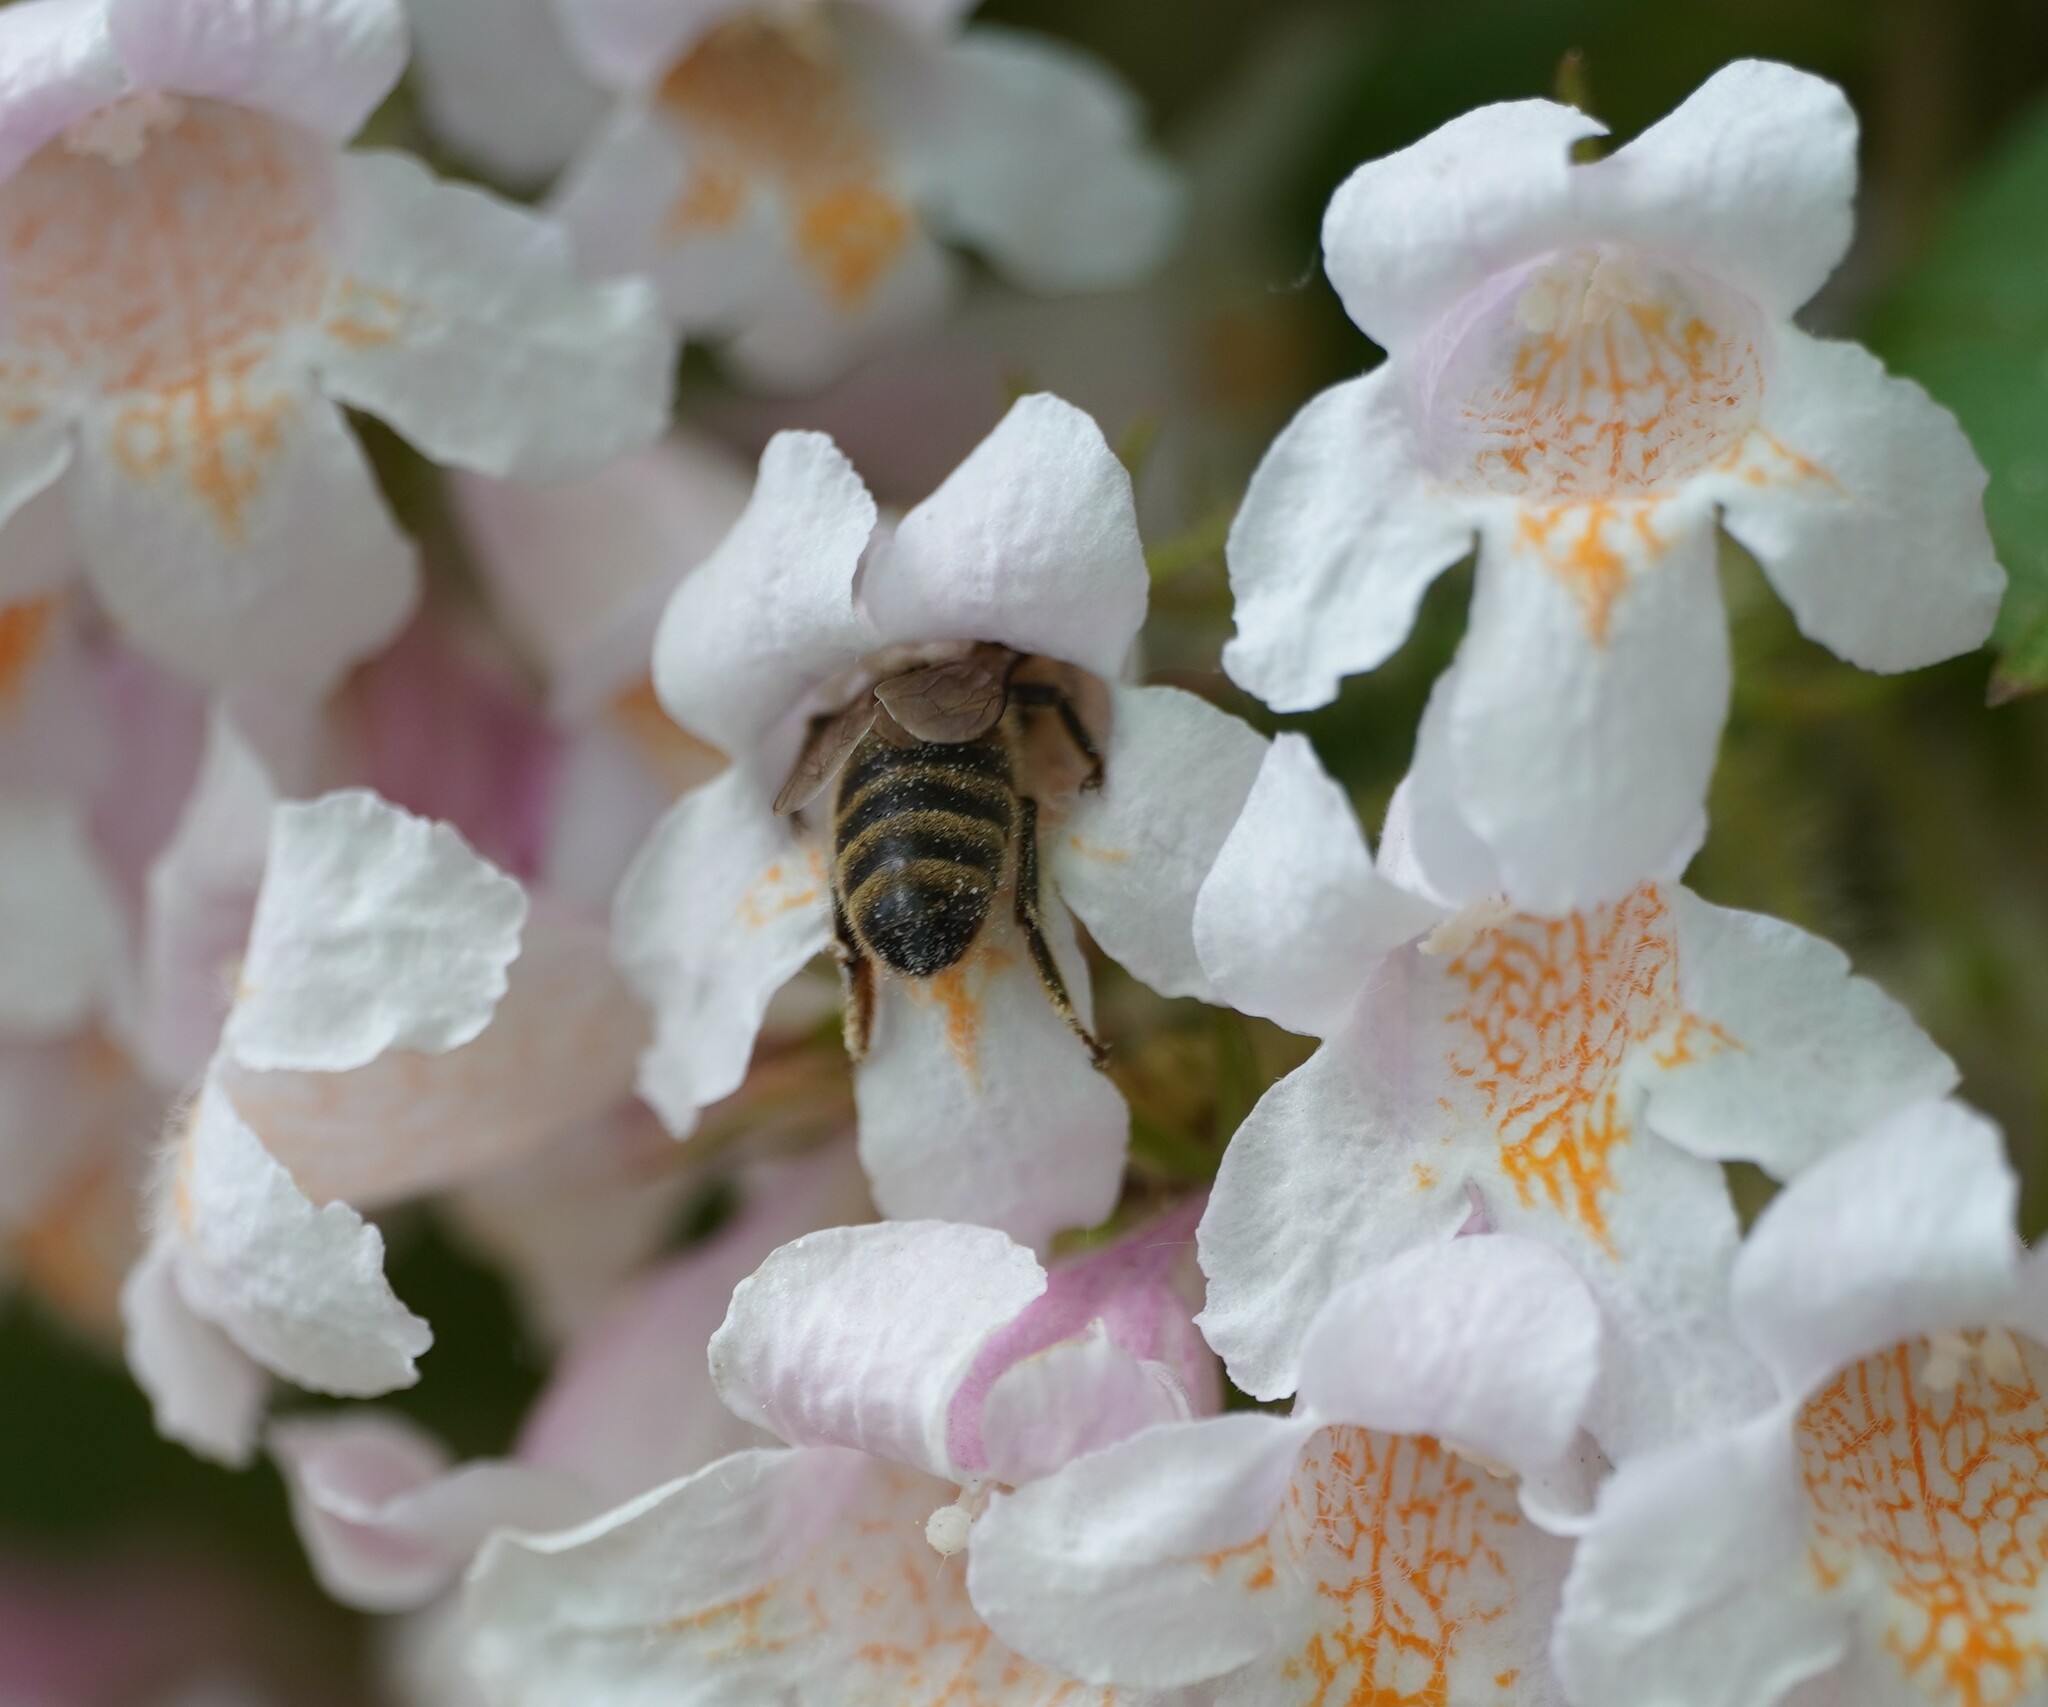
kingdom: Animalia
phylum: Arthropoda
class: Insecta
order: Hymenoptera
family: Apidae
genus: Apis
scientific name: Apis mellifera
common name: Honey bee
